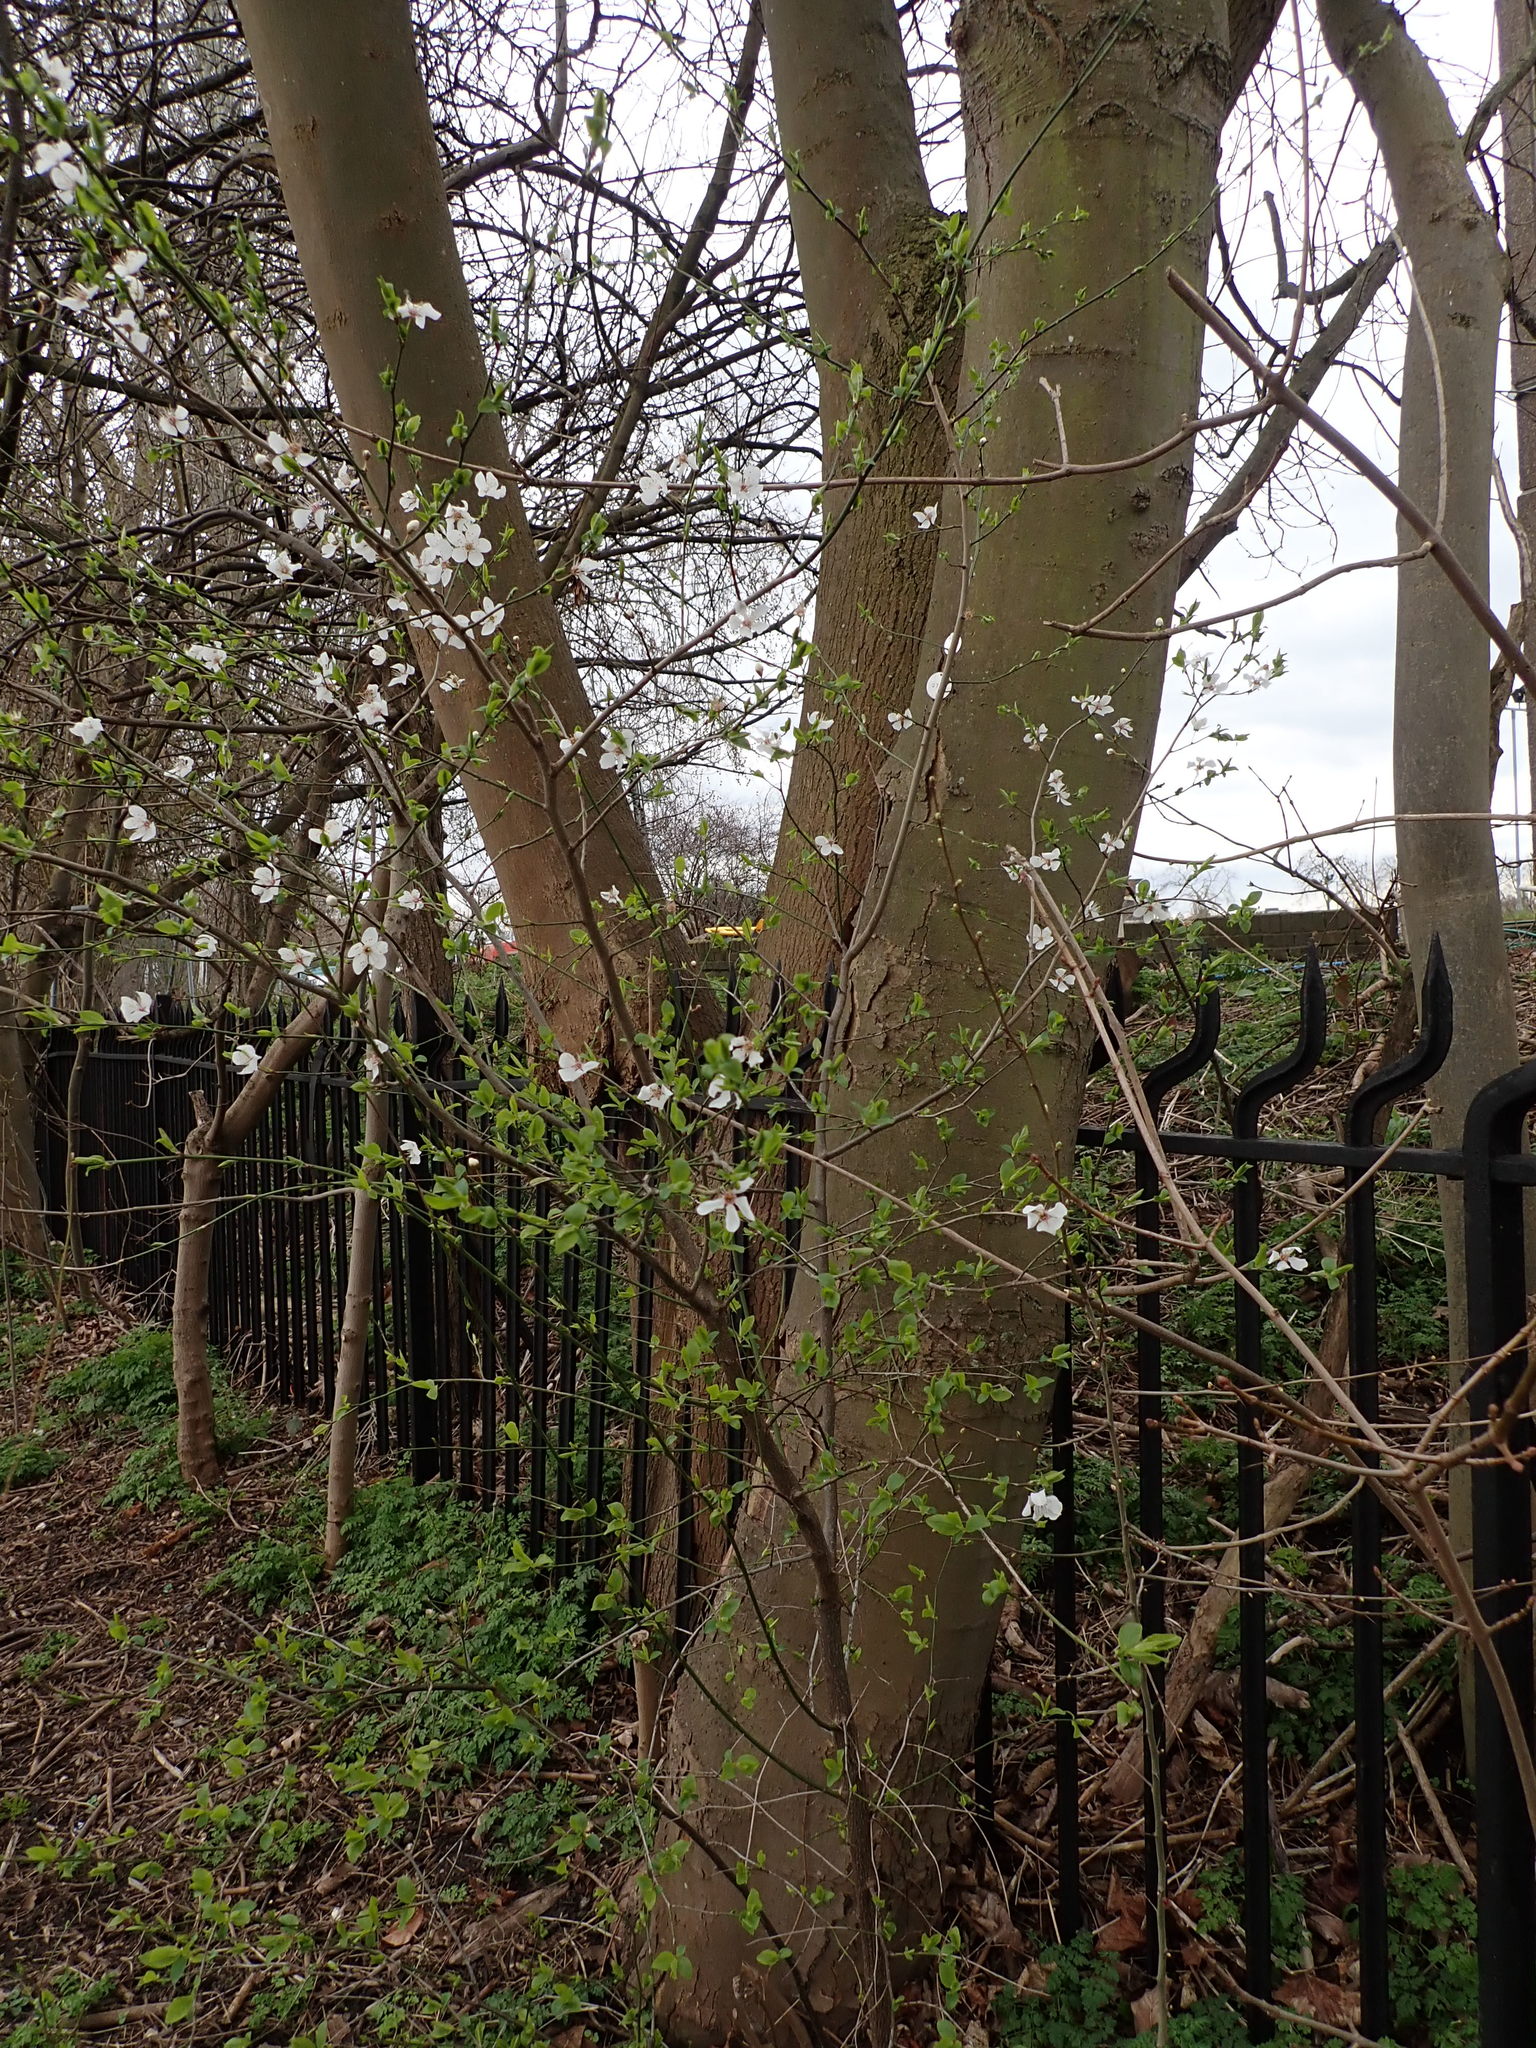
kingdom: Plantae
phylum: Tracheophyta
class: Magnoliopsida
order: Rosales
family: Rosaceae
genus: Prunus
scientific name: Prunus cerasifera
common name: Cherry plum
